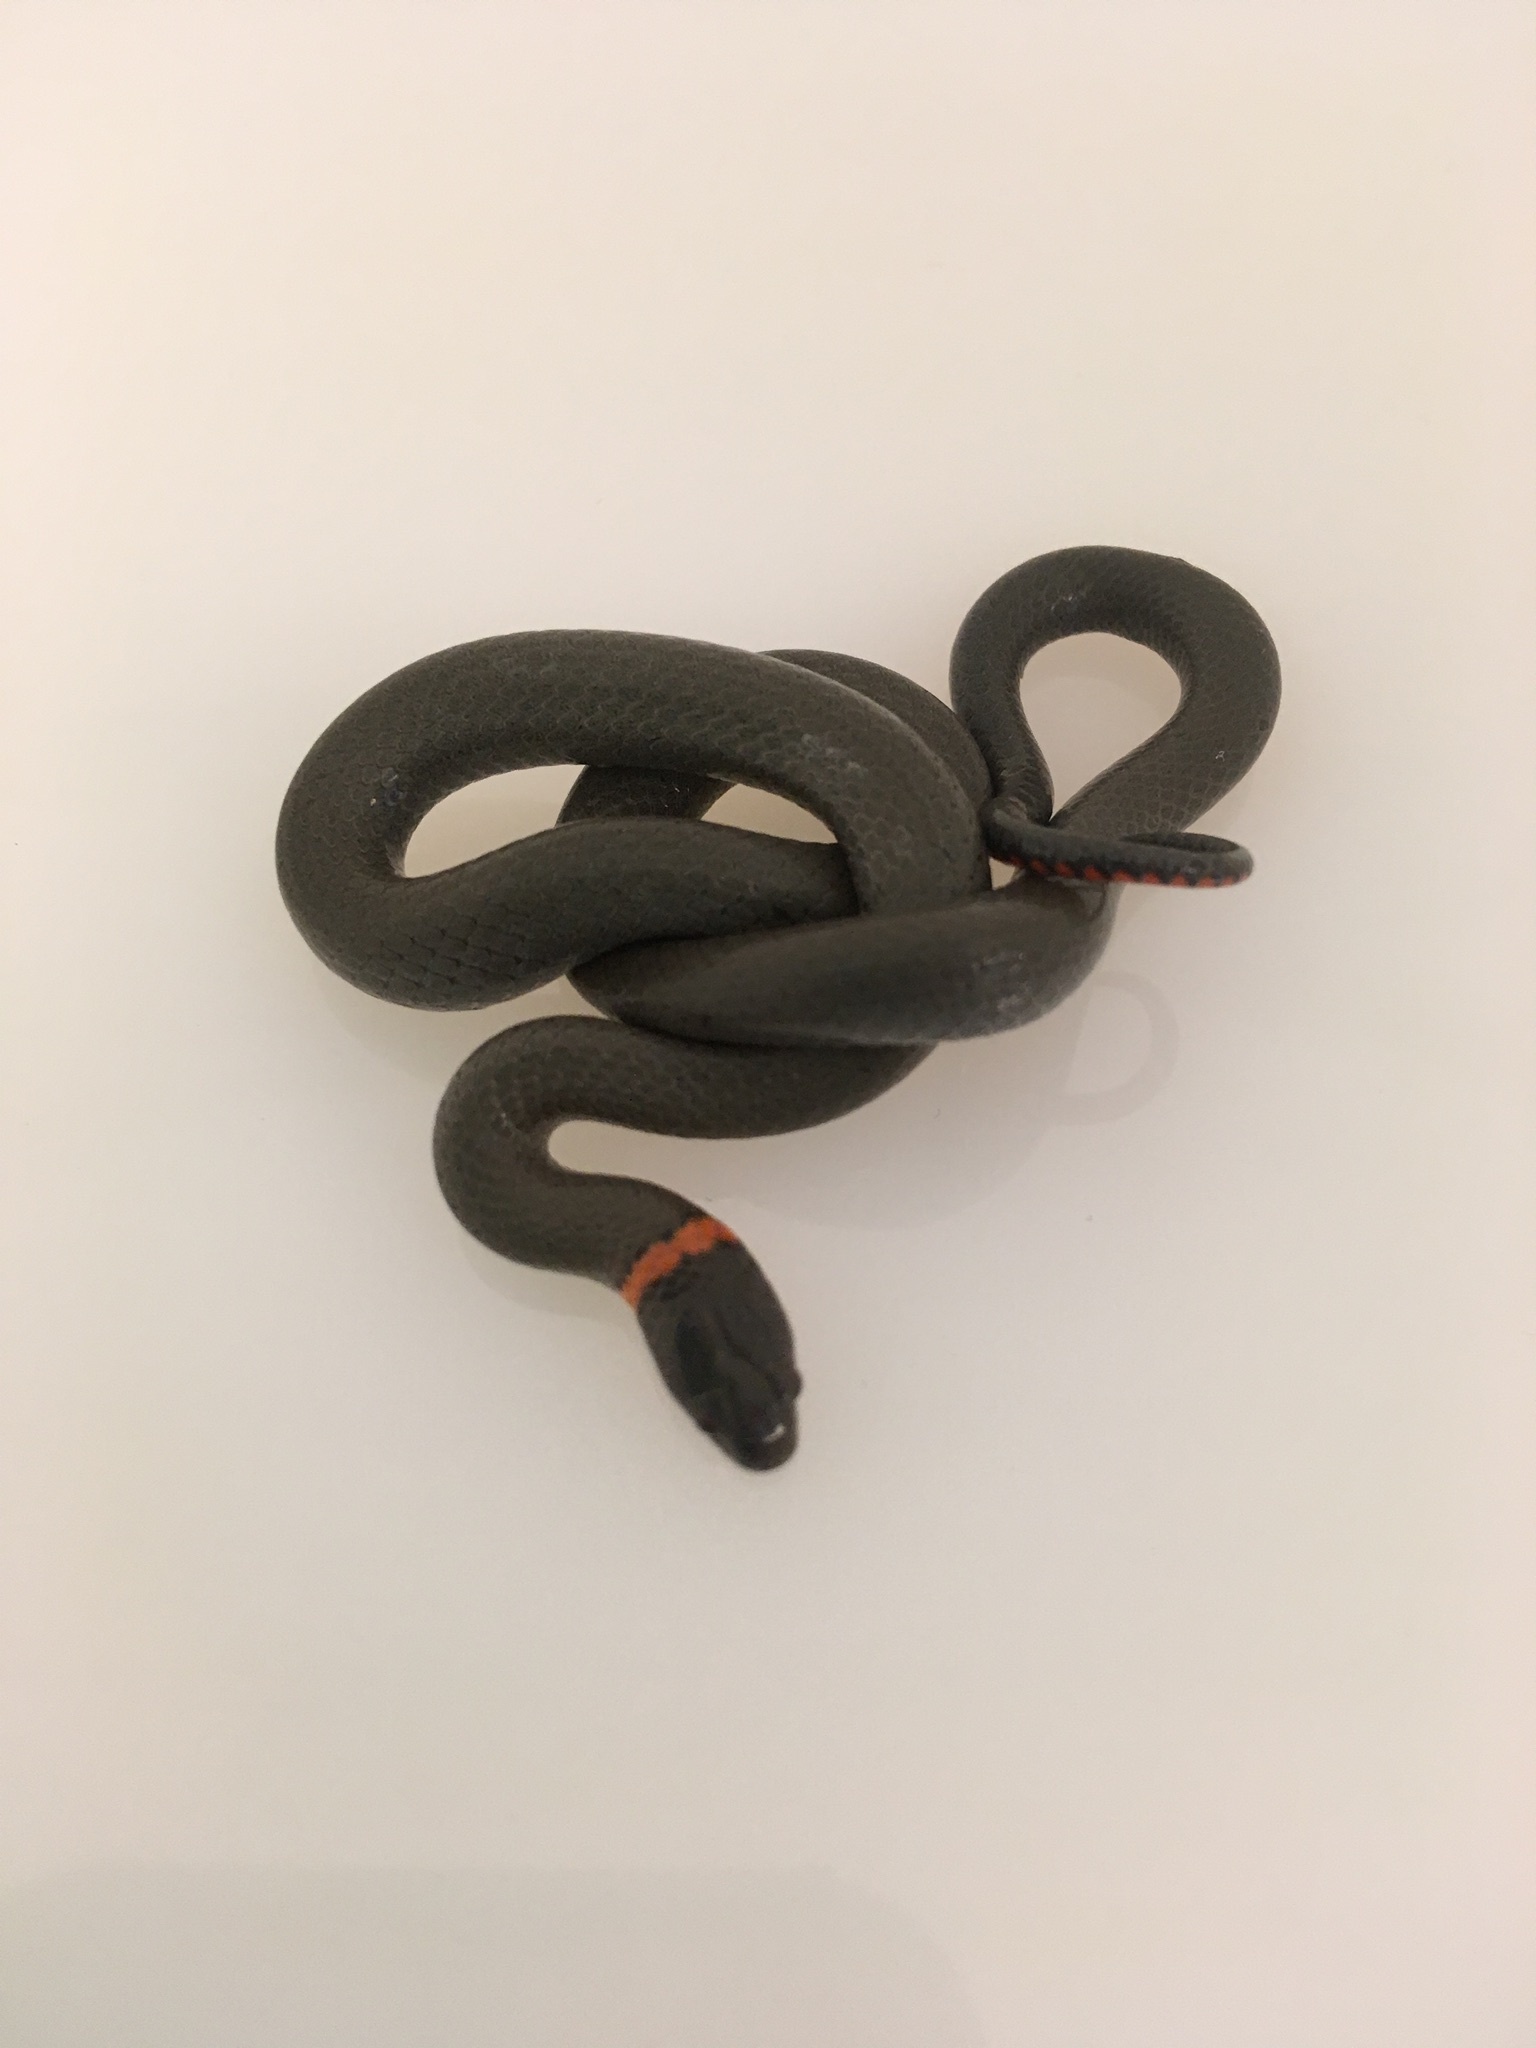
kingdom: Animalia
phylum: Chordata
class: Squamata
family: Colubridae
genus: Diadophis
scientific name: Diadophis punctatus
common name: Ringneck snake
